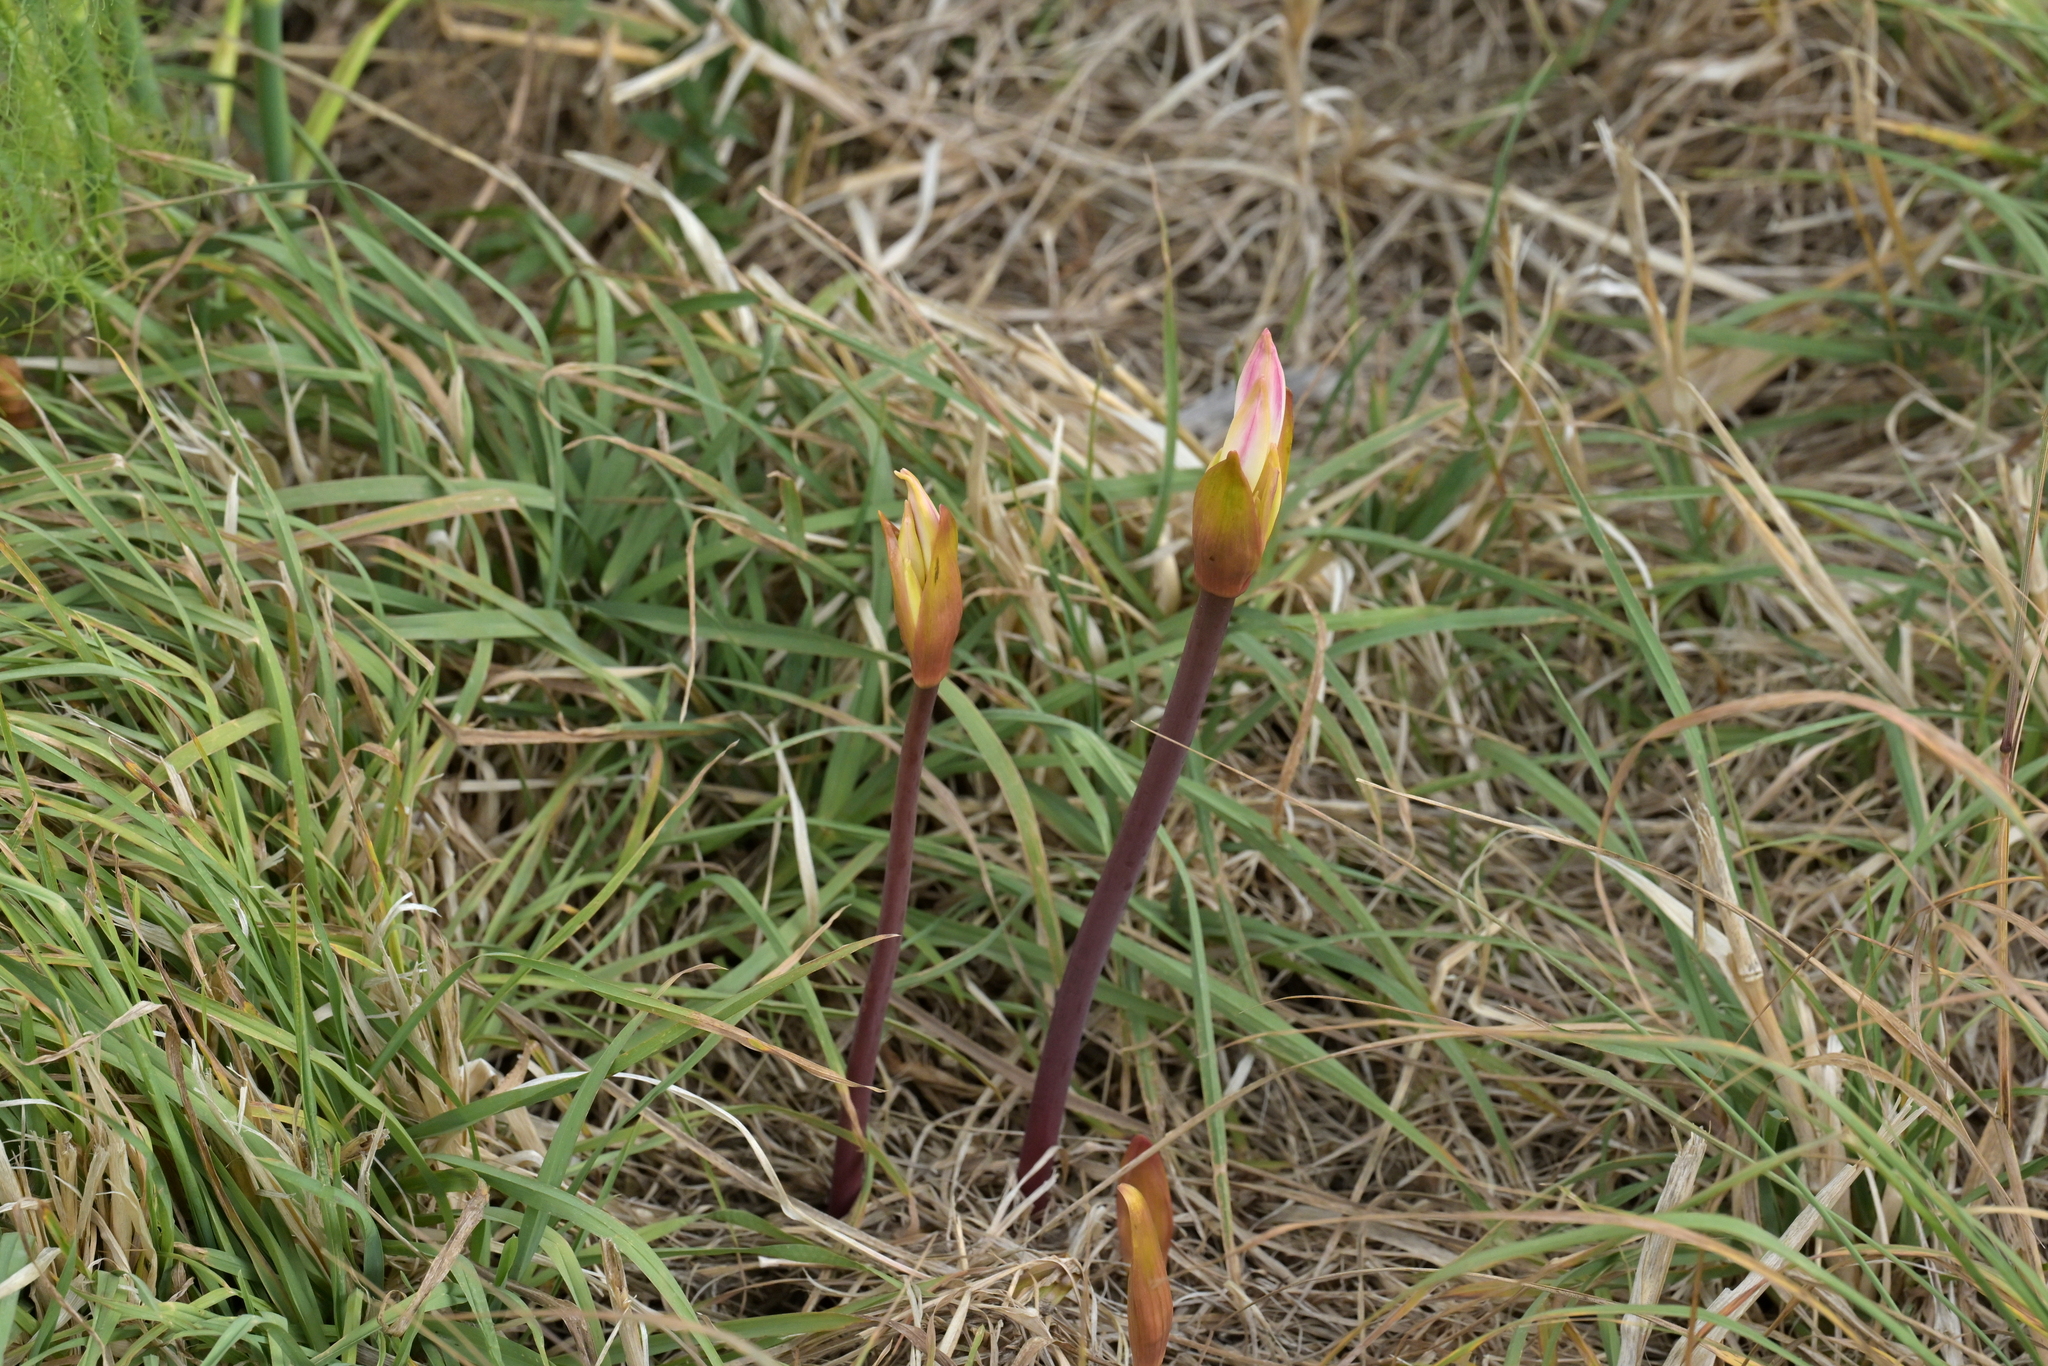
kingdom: Plantae
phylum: Tracheophyta
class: Liliopsida
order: Asparagales
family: Amaryllidaceae
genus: Amaryllis
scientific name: Amaryllis belladonna
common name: Jersey lily
